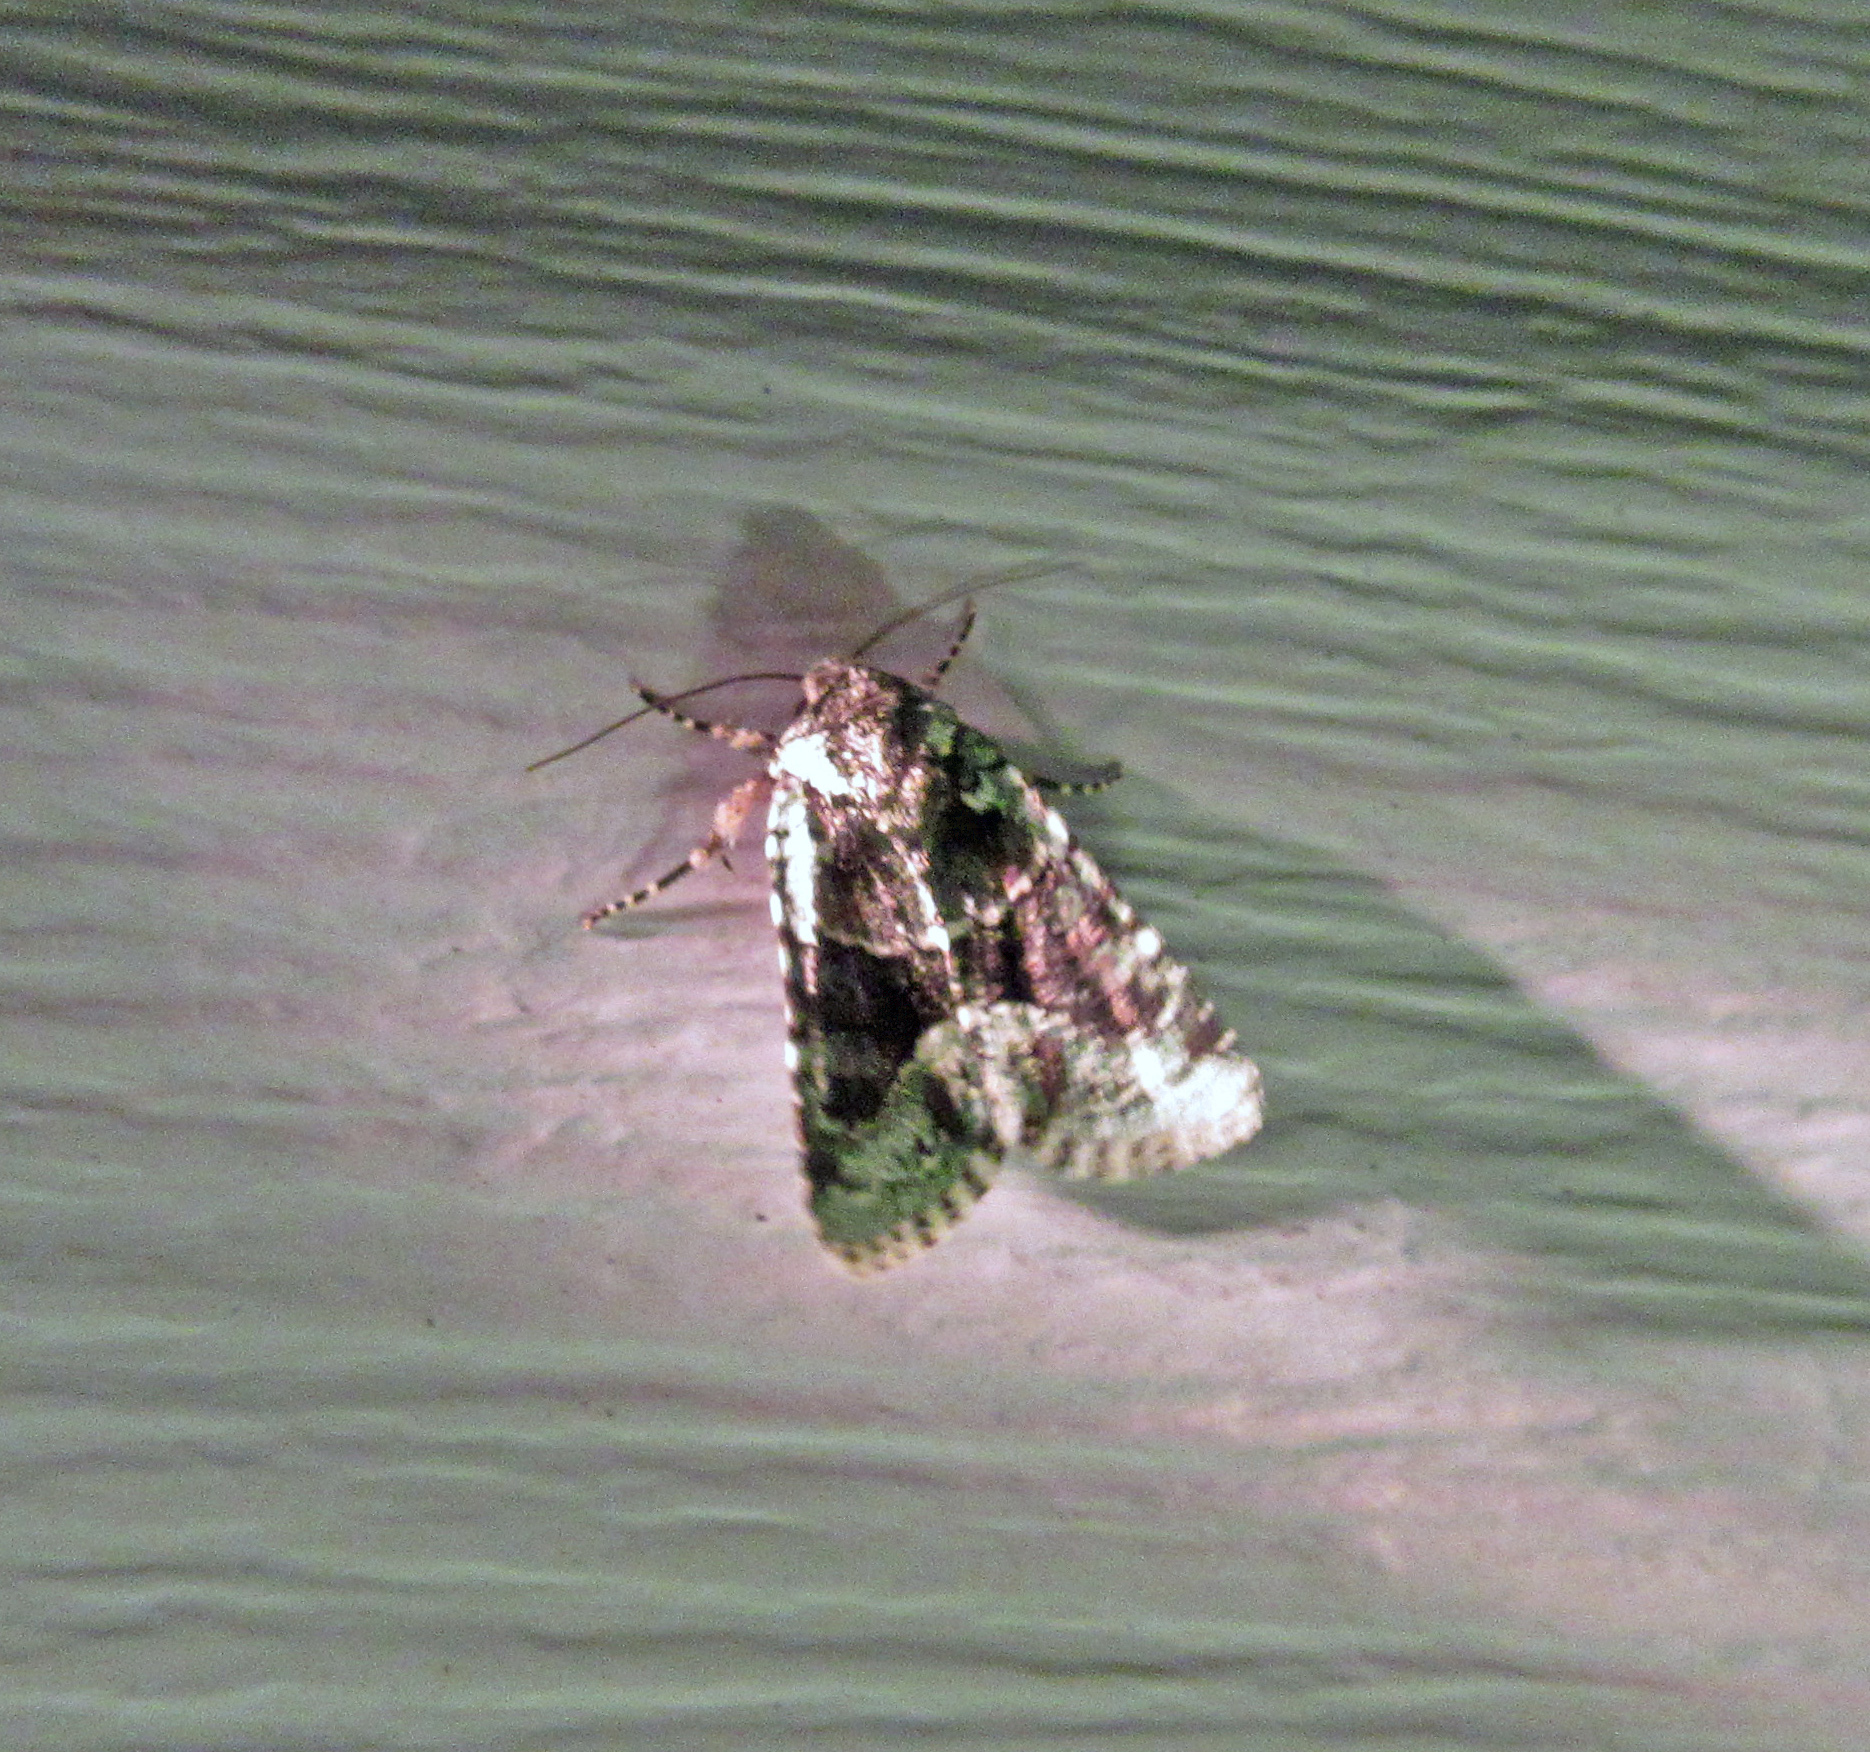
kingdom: Animalia
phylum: Arthropoda
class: Insecta
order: Lepidoptera
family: Noctuidae
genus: Lacinipolia
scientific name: Lacinipolia laudabilis
